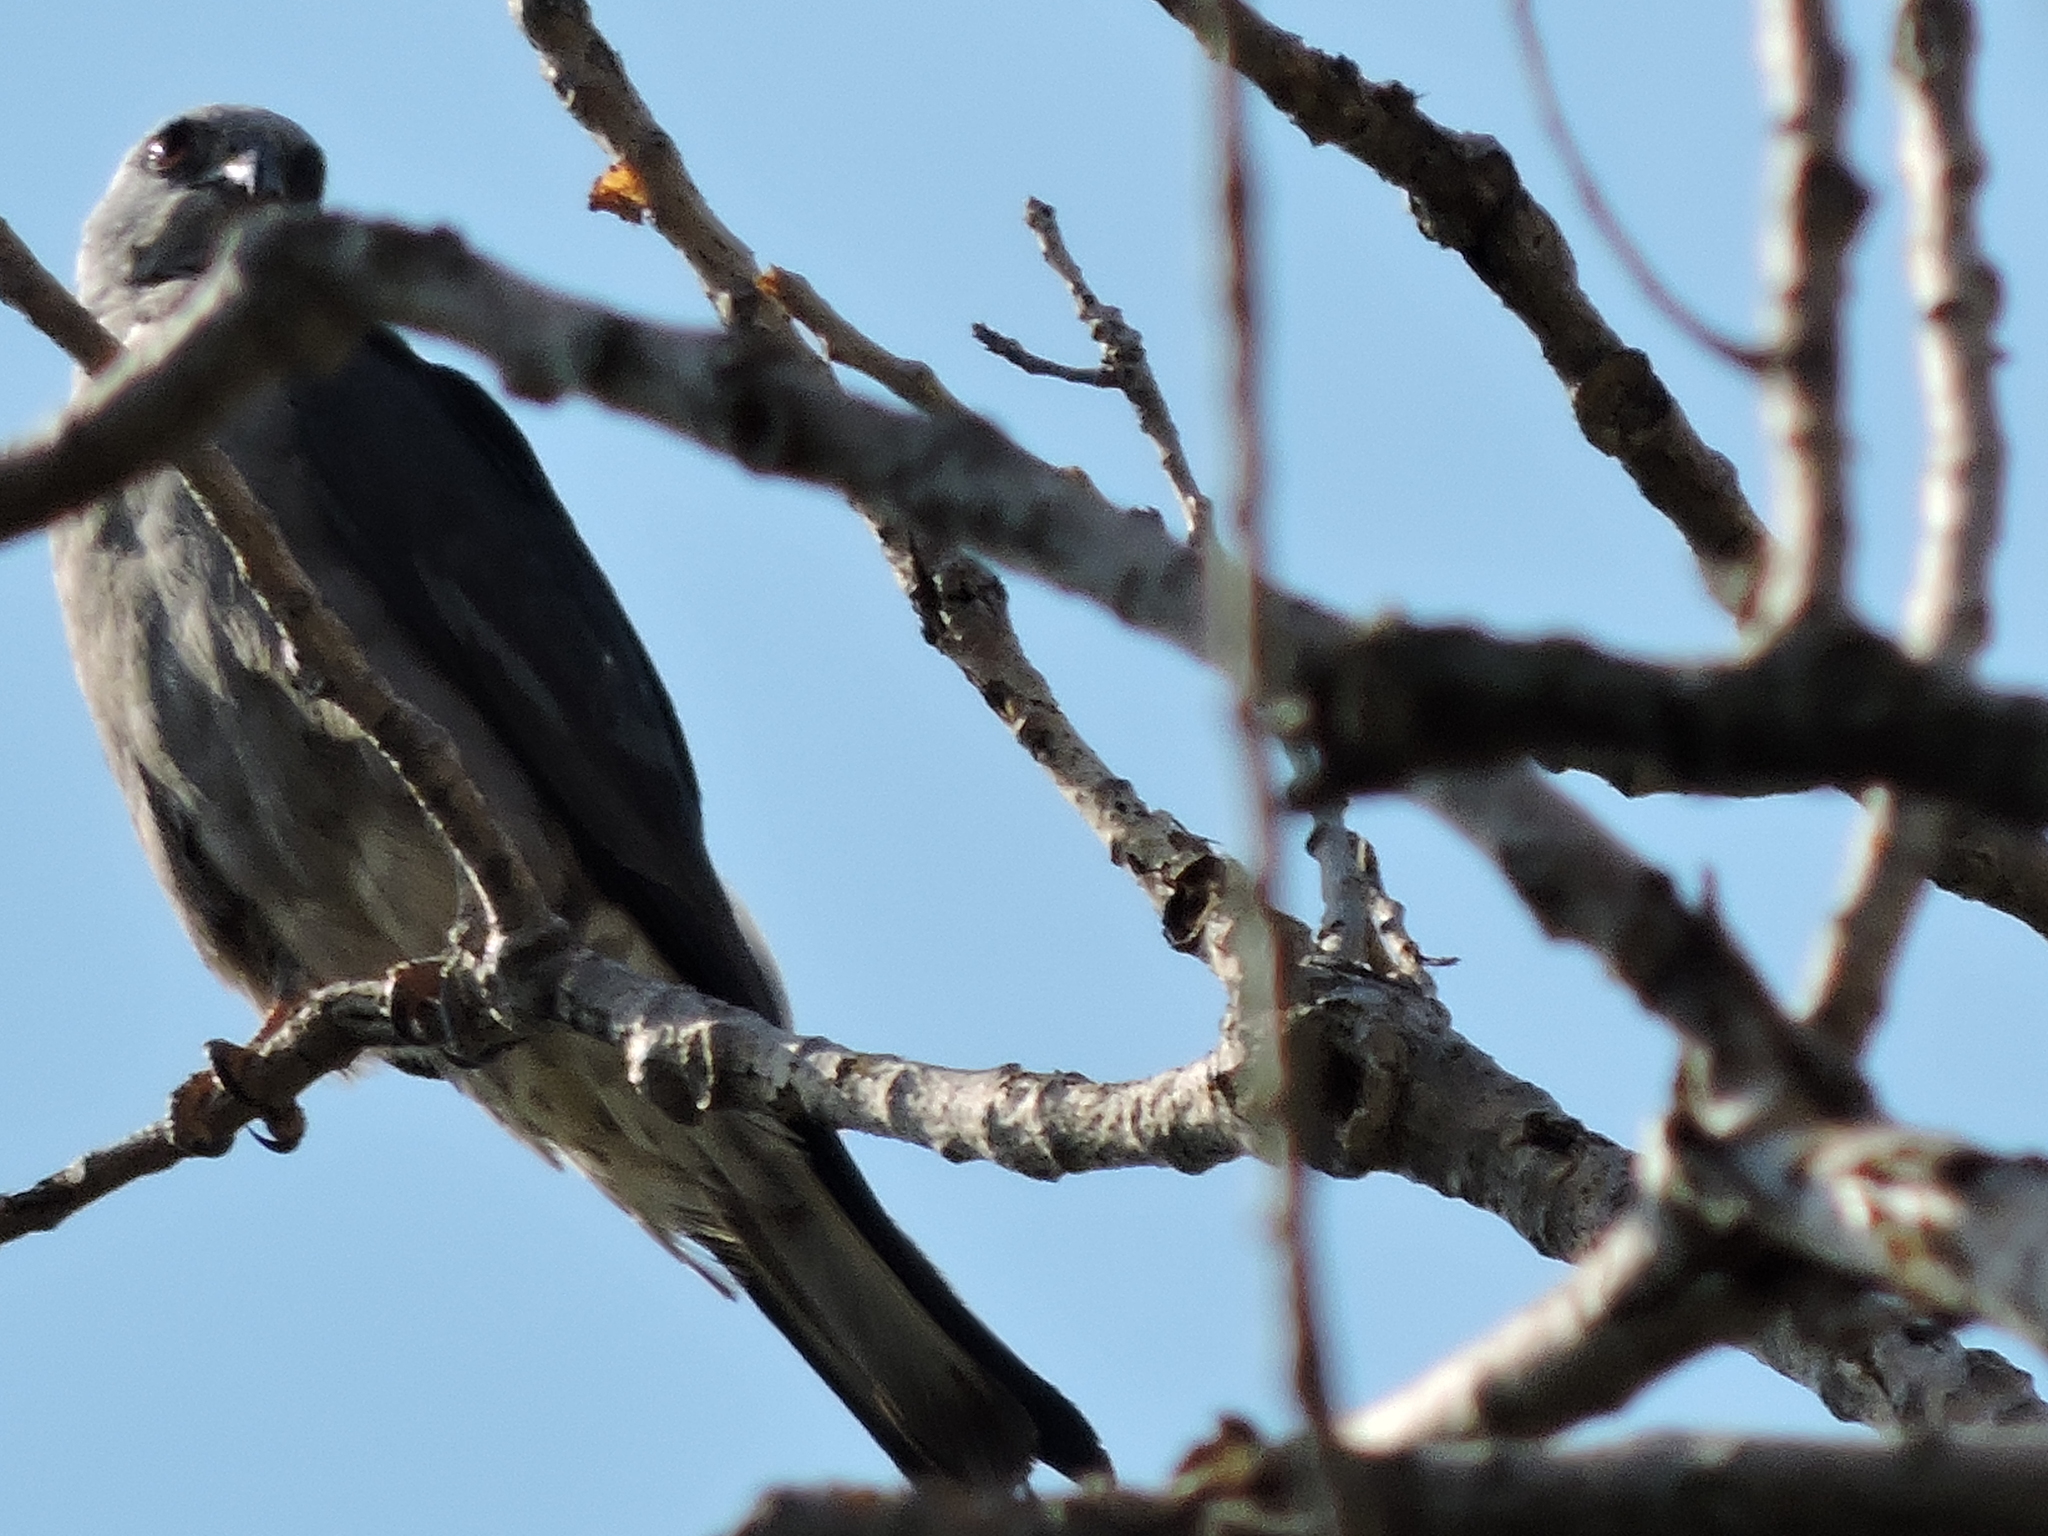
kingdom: Animalia
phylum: Chordata
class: Aves
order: Accipitriformes
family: Accipitridae
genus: Ictinia
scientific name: Ictinia mississippiensis
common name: Mississippi kite
